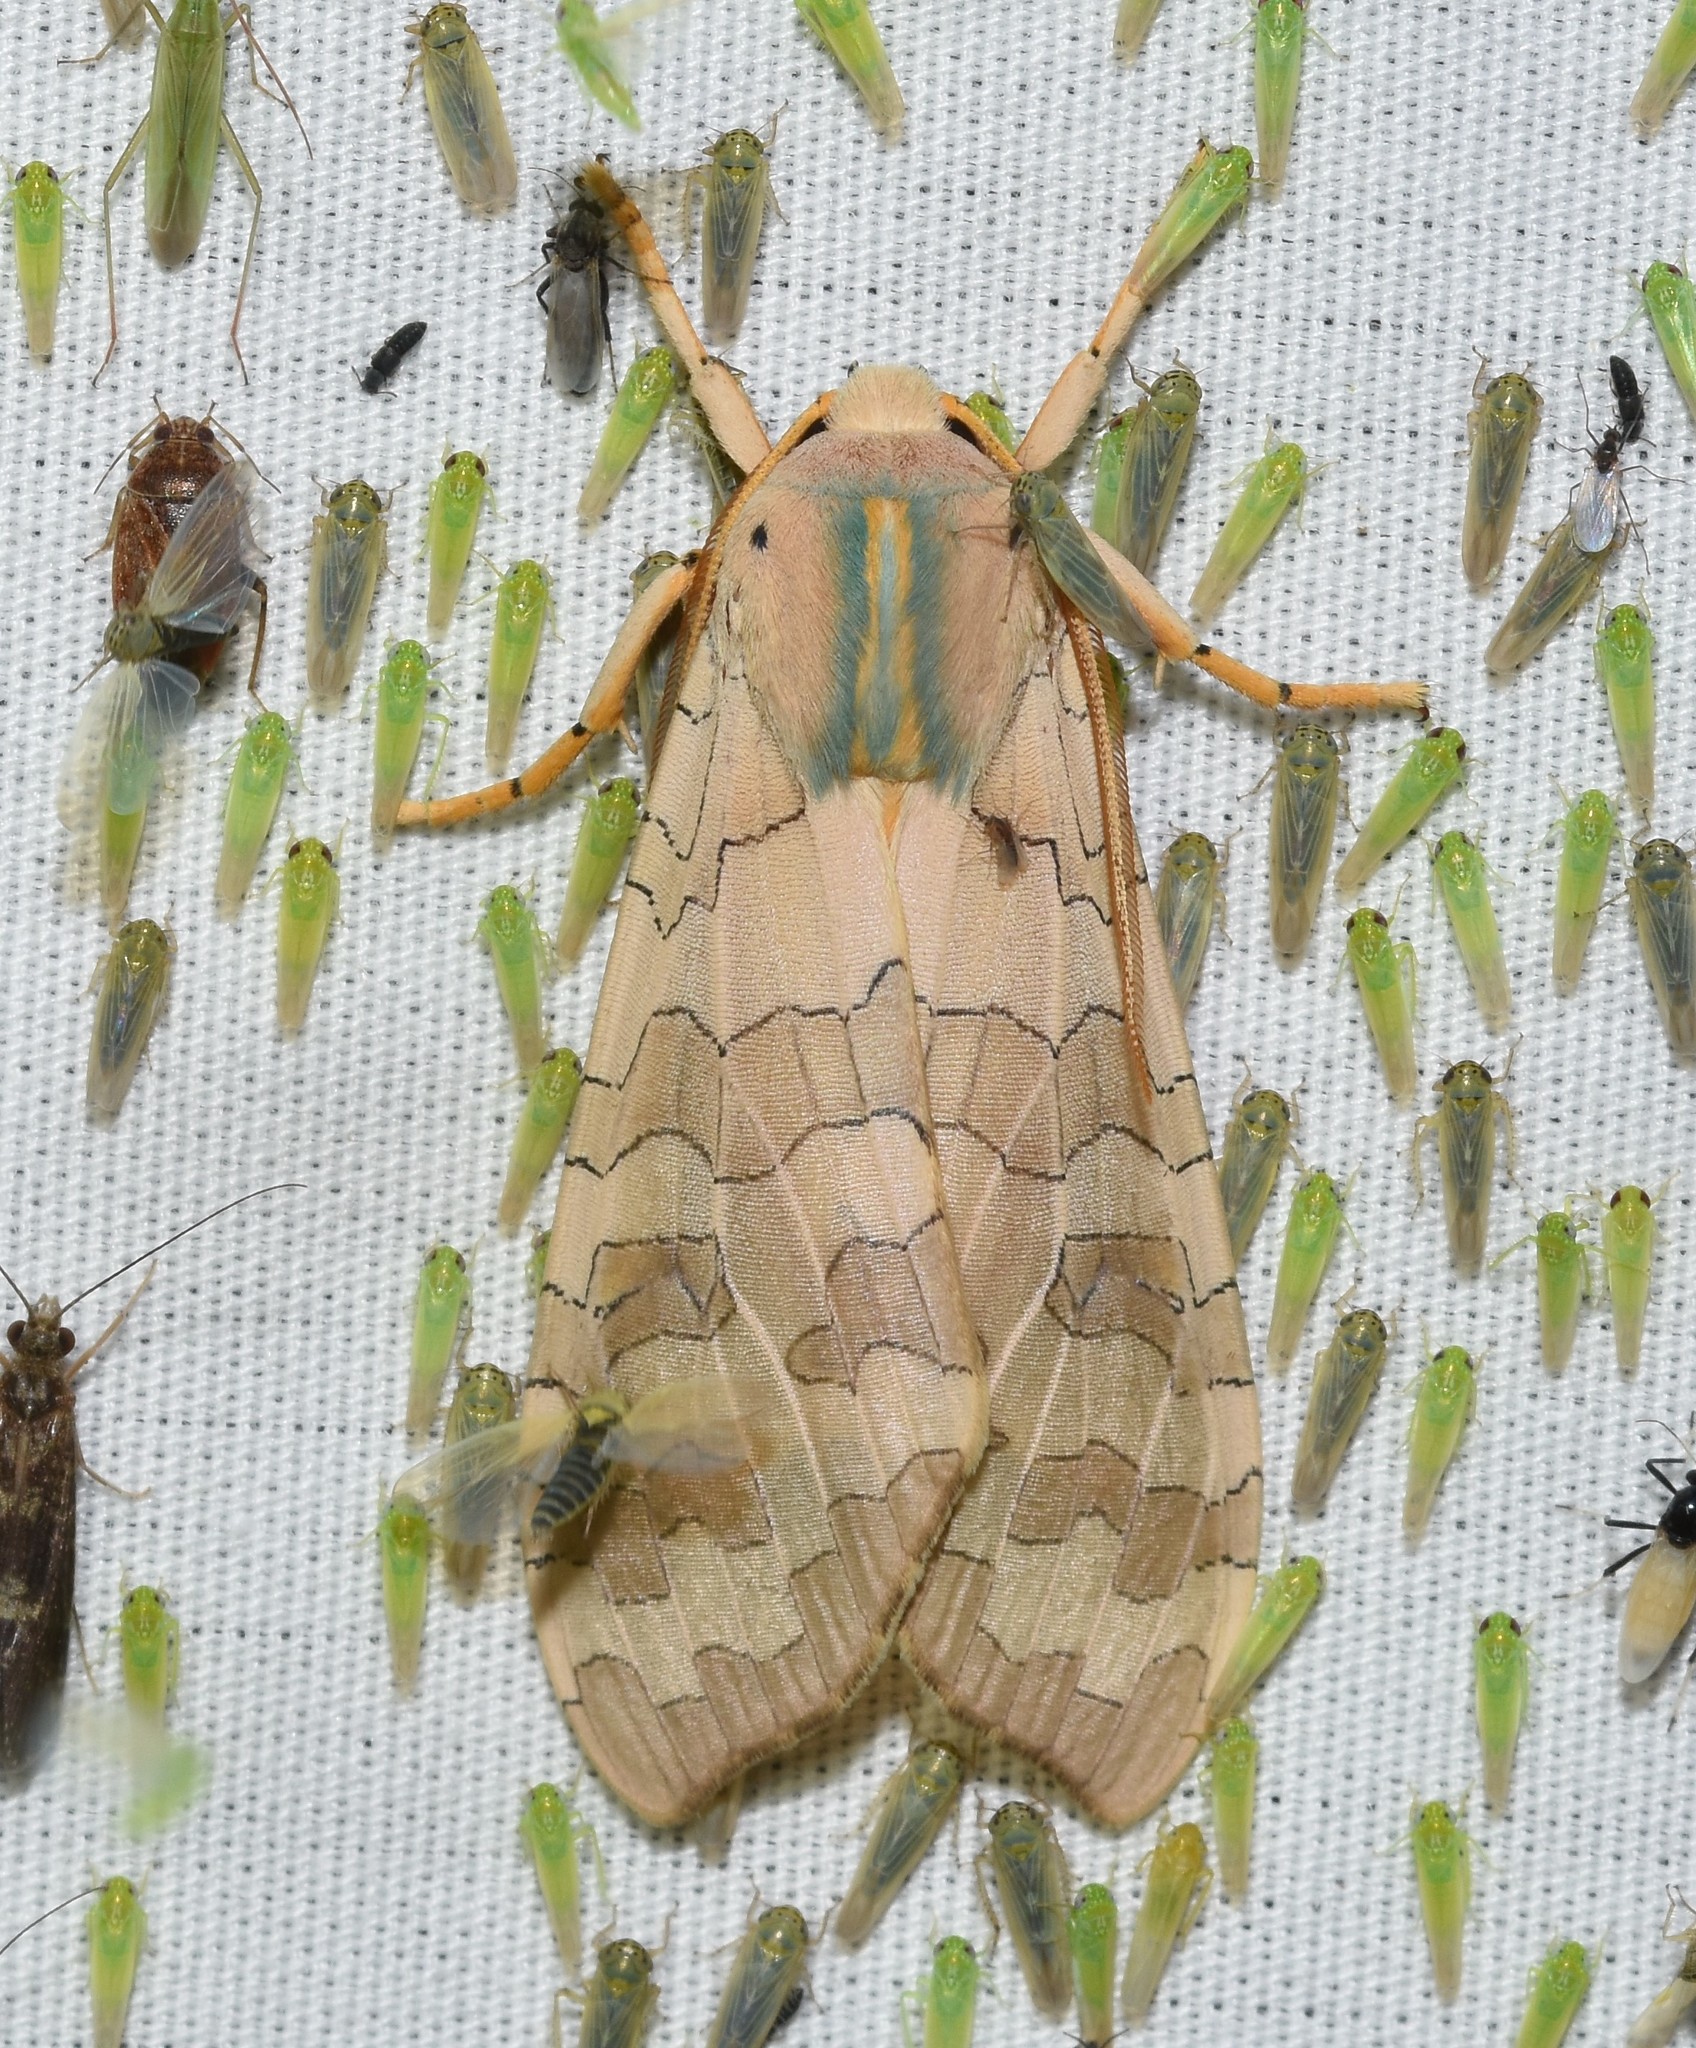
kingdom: Animalia
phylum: Arthropoda
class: Insecta
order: Lepidoptera
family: Erebidae
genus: Halysidota
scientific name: Halysidota
